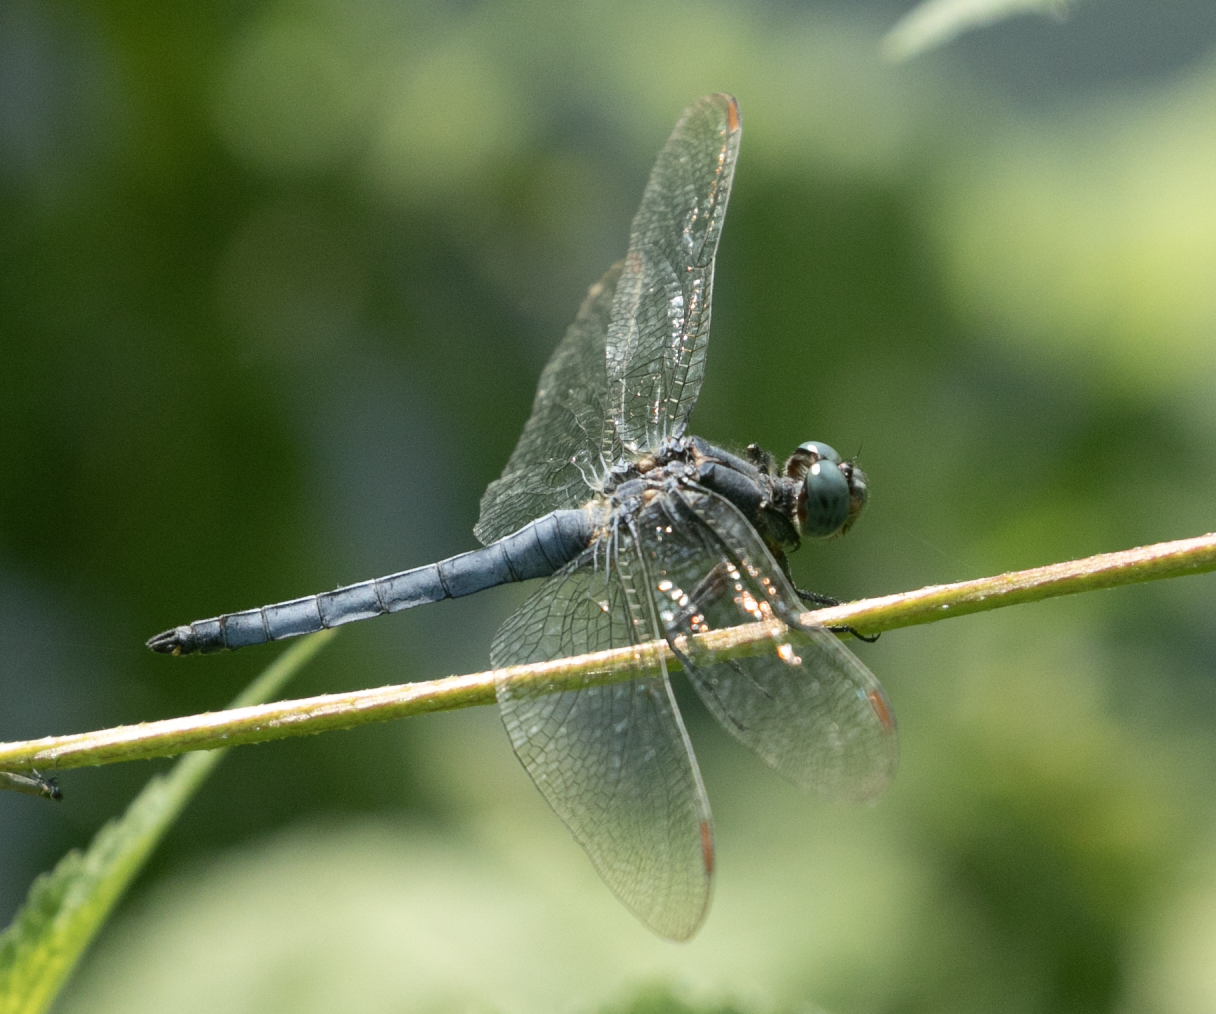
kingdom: Animalia
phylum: Arthropoda
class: Insecta
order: Odonata
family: Libellulidae
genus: Orthetrum
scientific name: Orthetrum coerulescens
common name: Keeled skimmer
